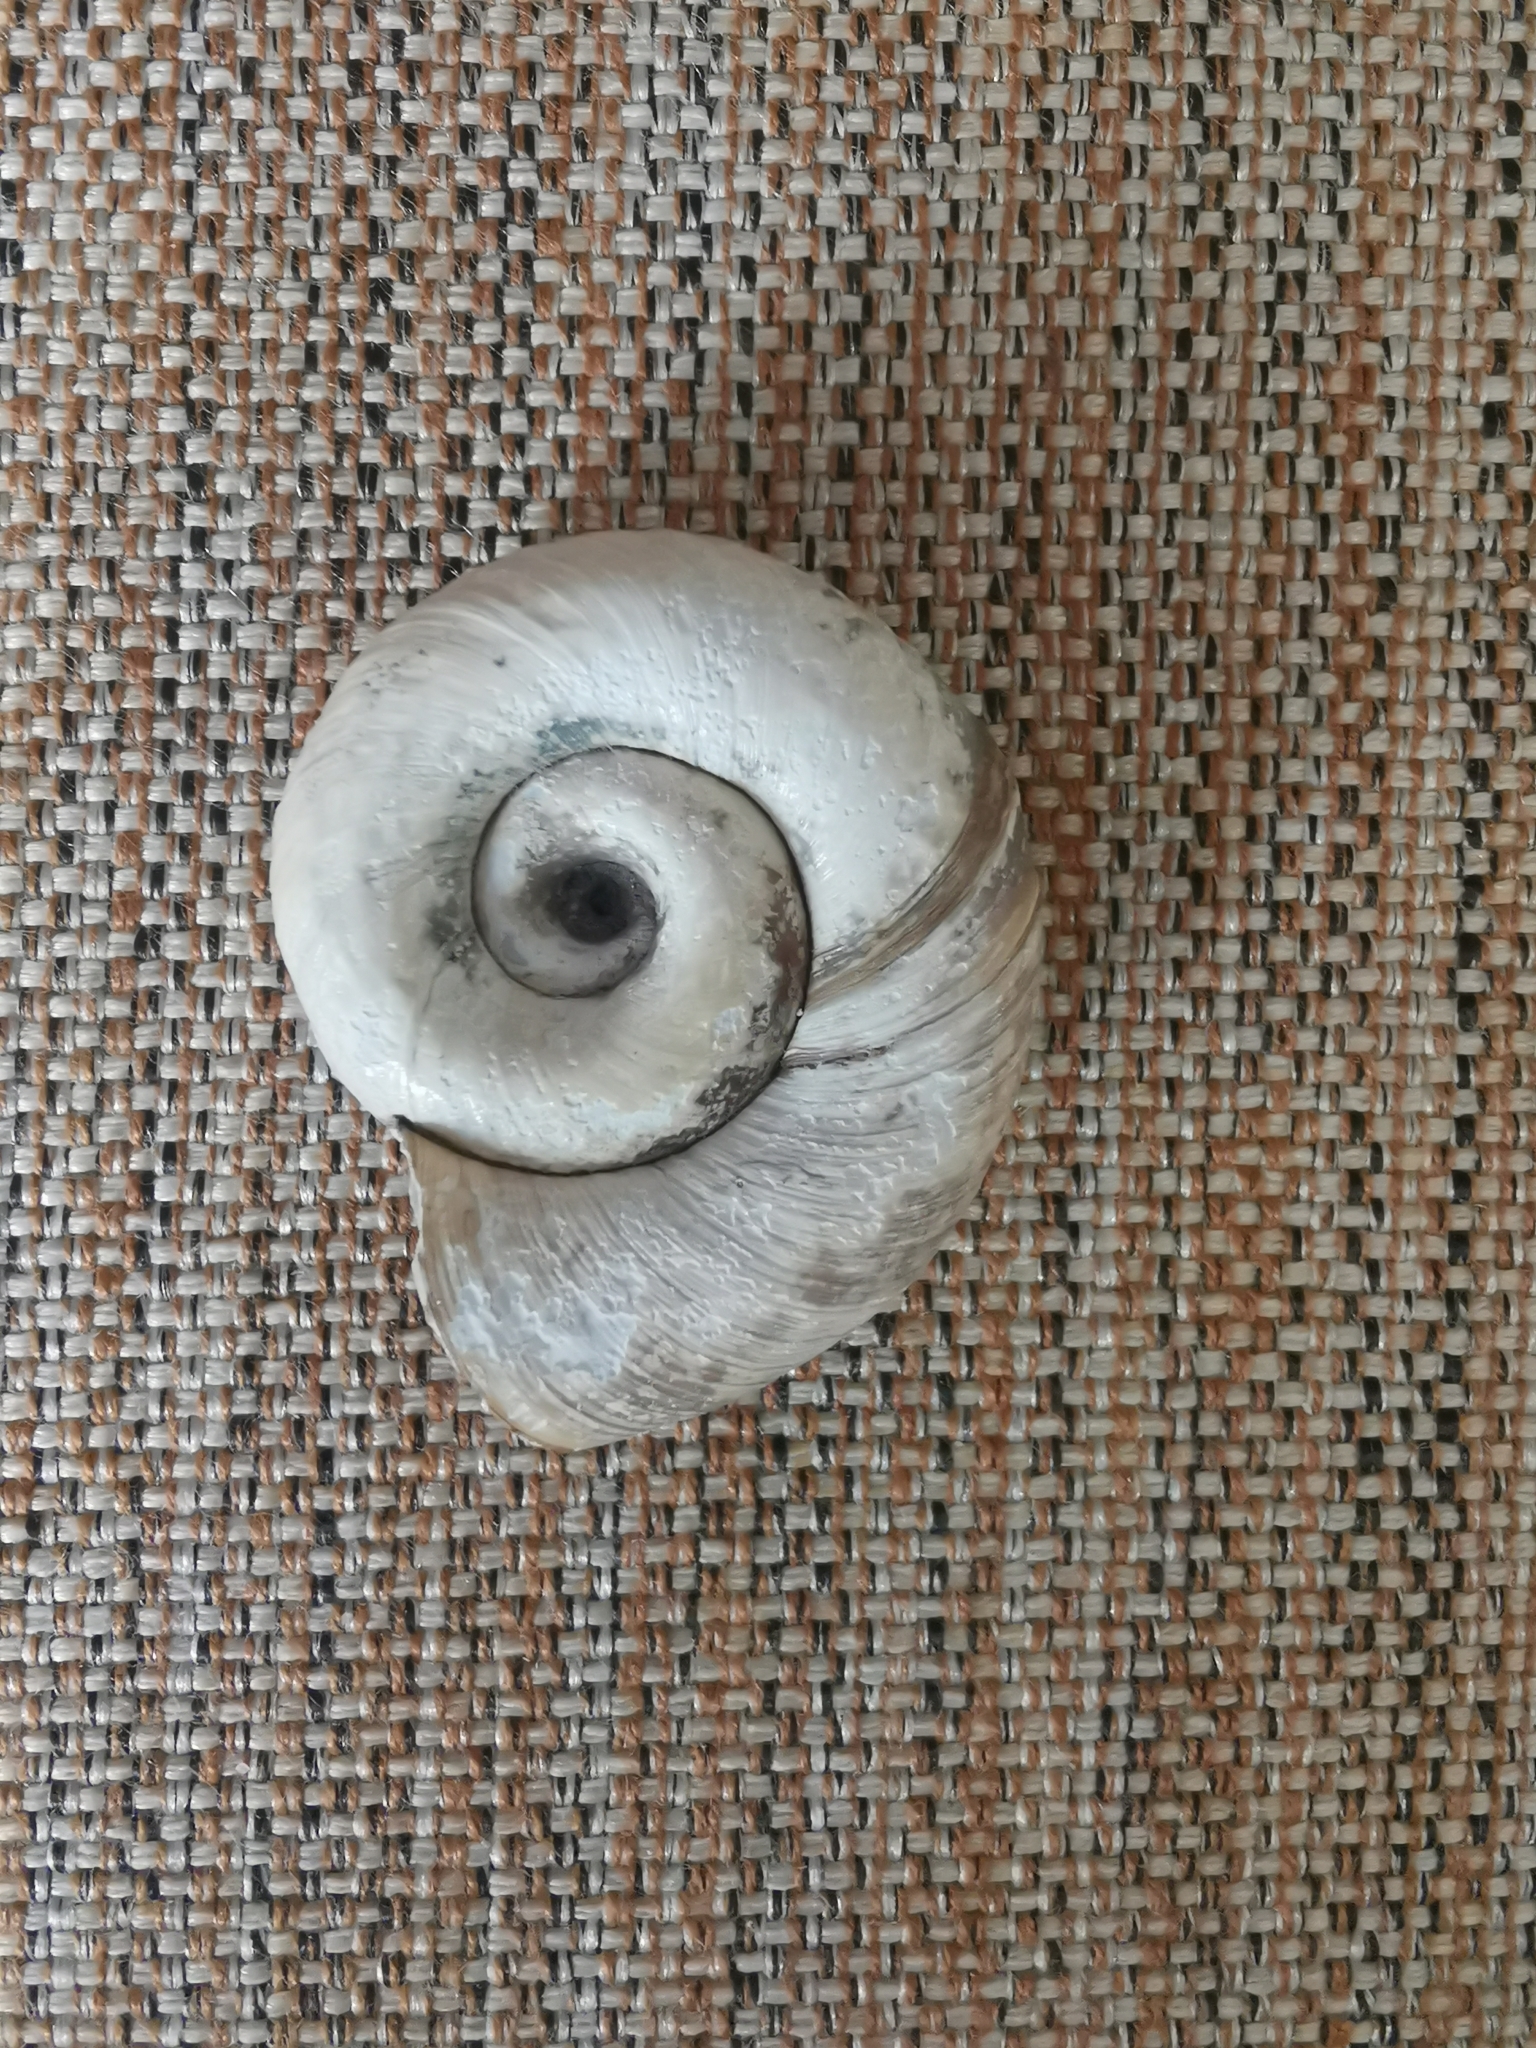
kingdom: Animalia
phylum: Mollusca
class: Gastropoda
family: Planorbidae
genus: Planorbarius
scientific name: Planorbarius corneus
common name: Great ramshorn
